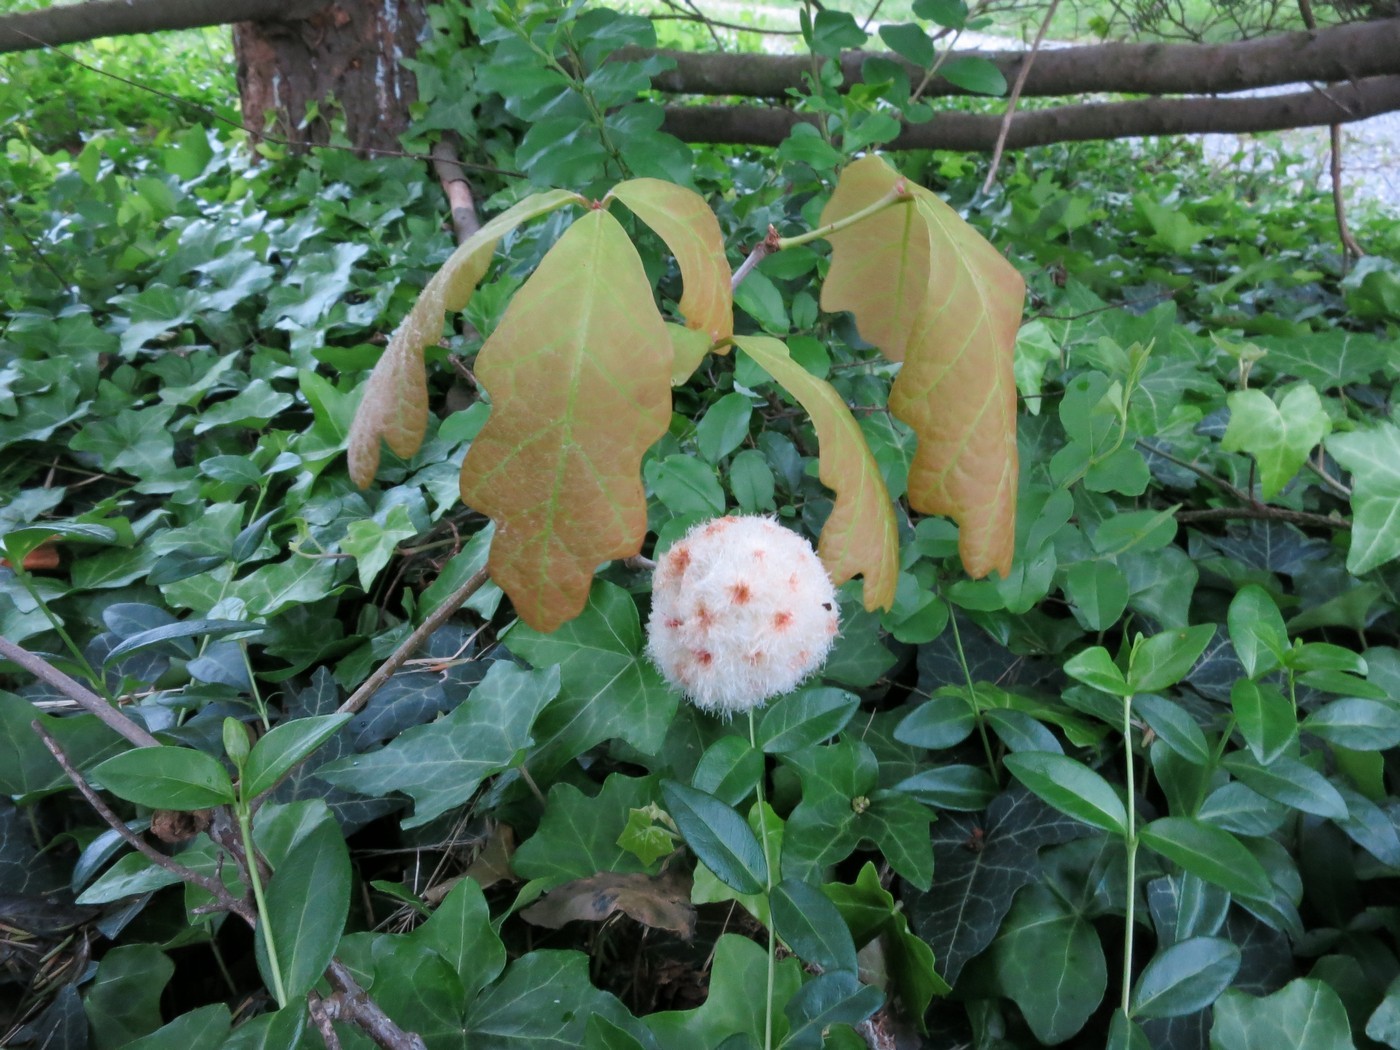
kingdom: Animalia
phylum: Arthropoda
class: Insecta
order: Hymenoptera
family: Cynipidae
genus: Callirhytis
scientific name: Callirhytis
